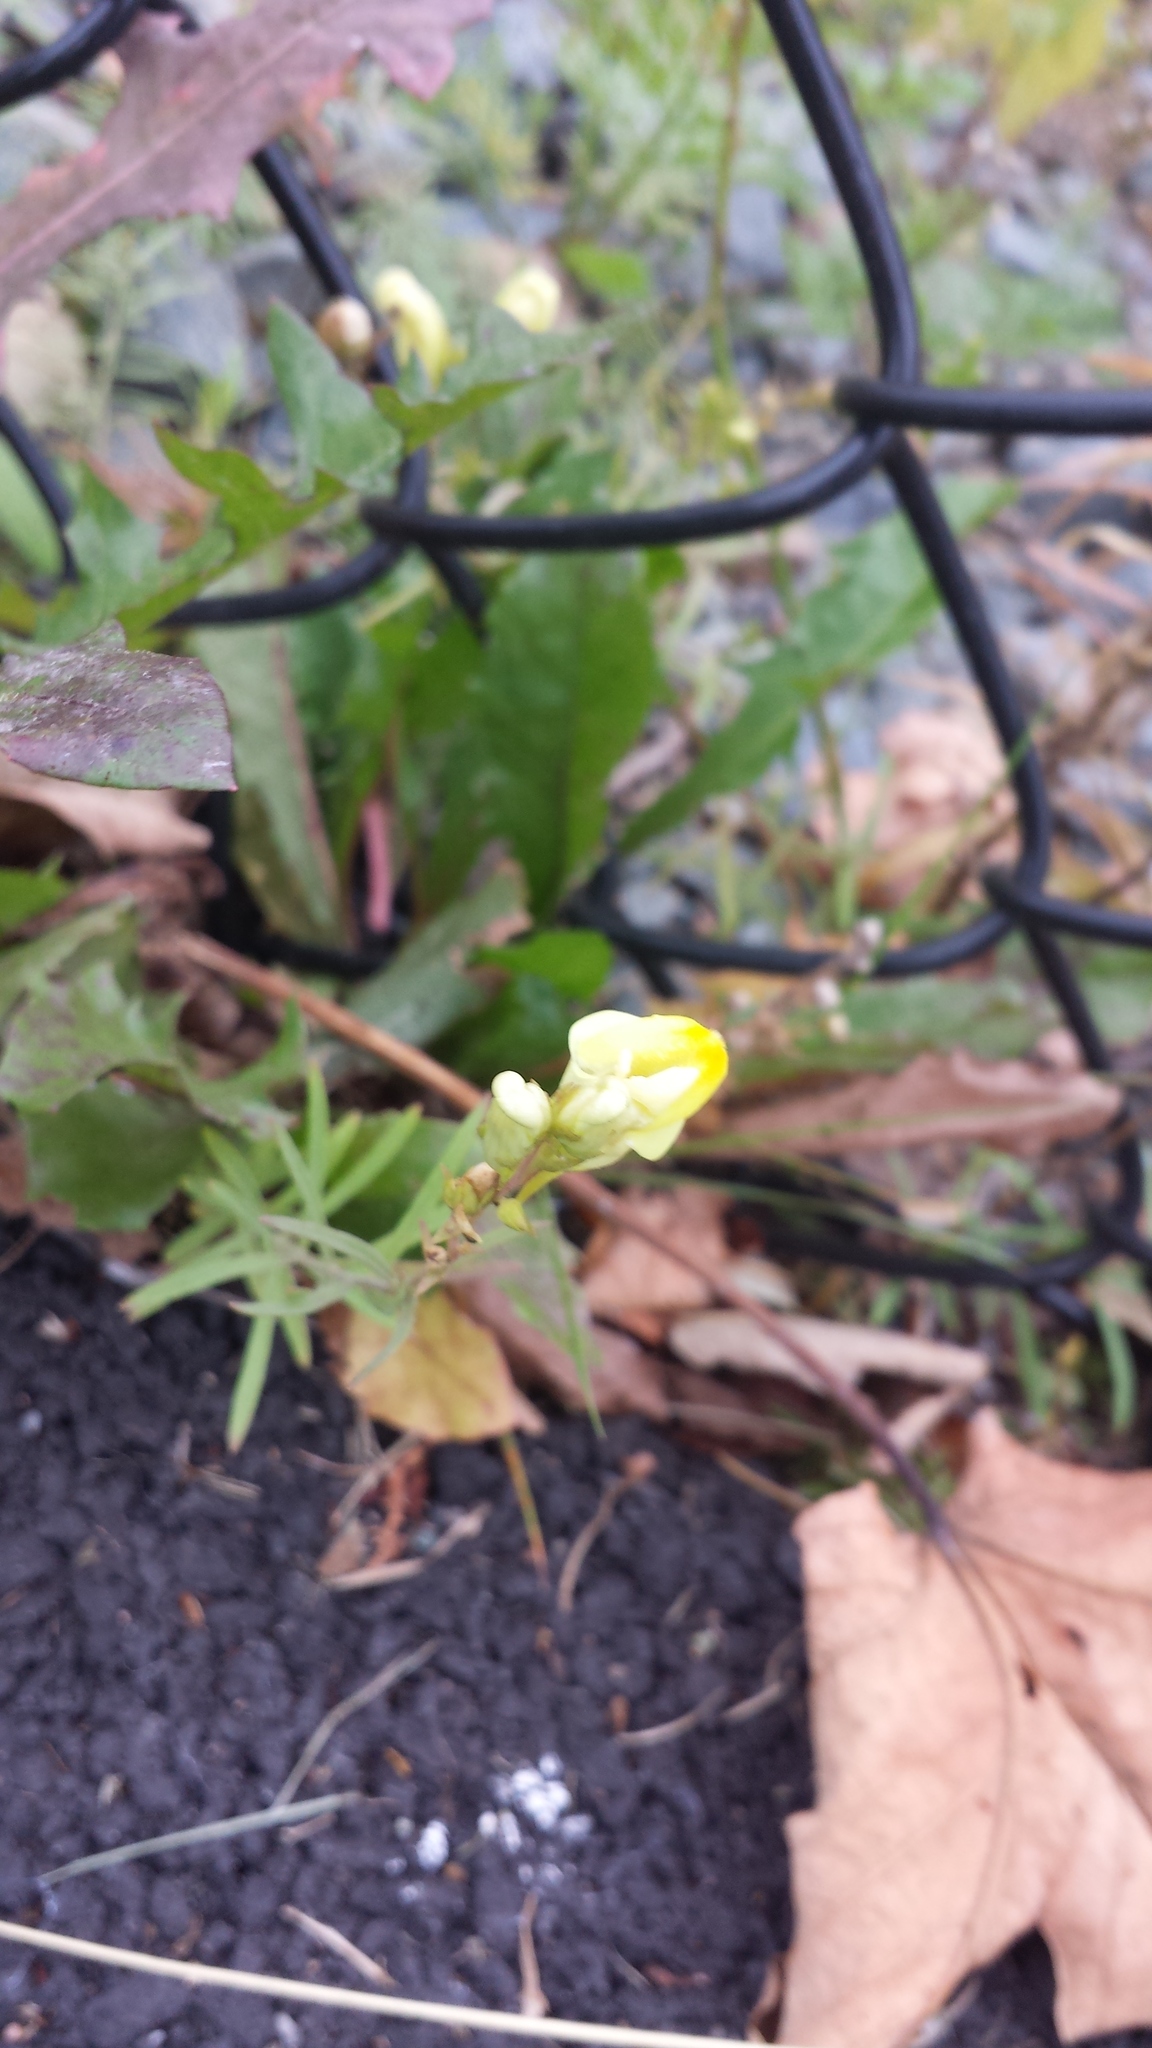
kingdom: Plantae
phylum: Tracheophyta
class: Magnoliopsida
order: Lamiales
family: Plantaginaceae
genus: Linaria
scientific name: Linaria vulgaris
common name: Butter and eggs
